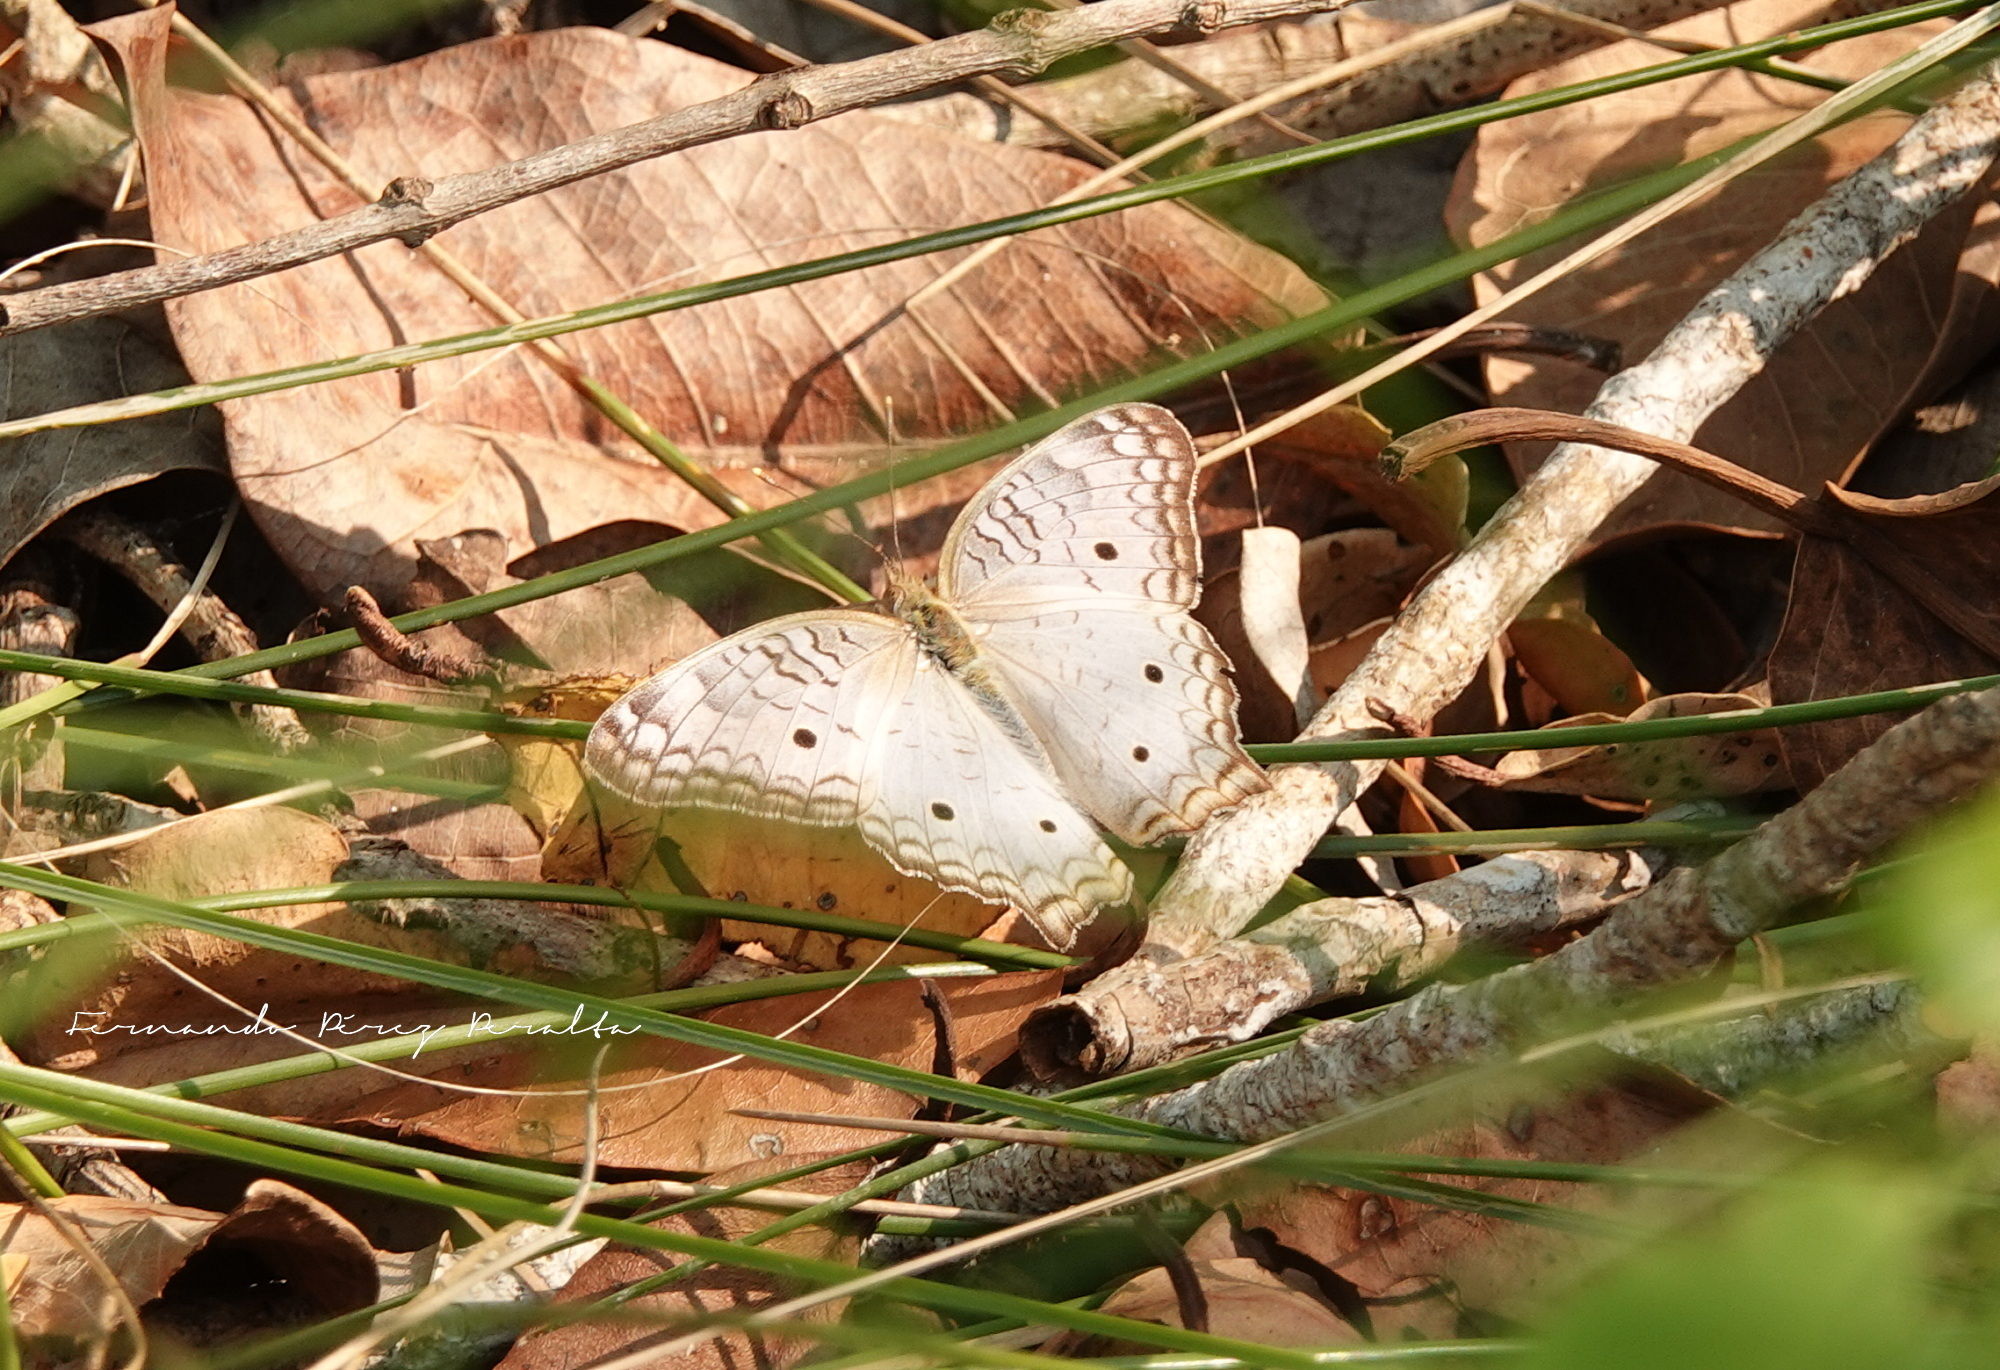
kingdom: Animalia
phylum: Arthropoda
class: Insecta
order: Lepidoptera
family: Nymphalidae
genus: Anartia
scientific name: Anartia jatrophae
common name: White peacock
